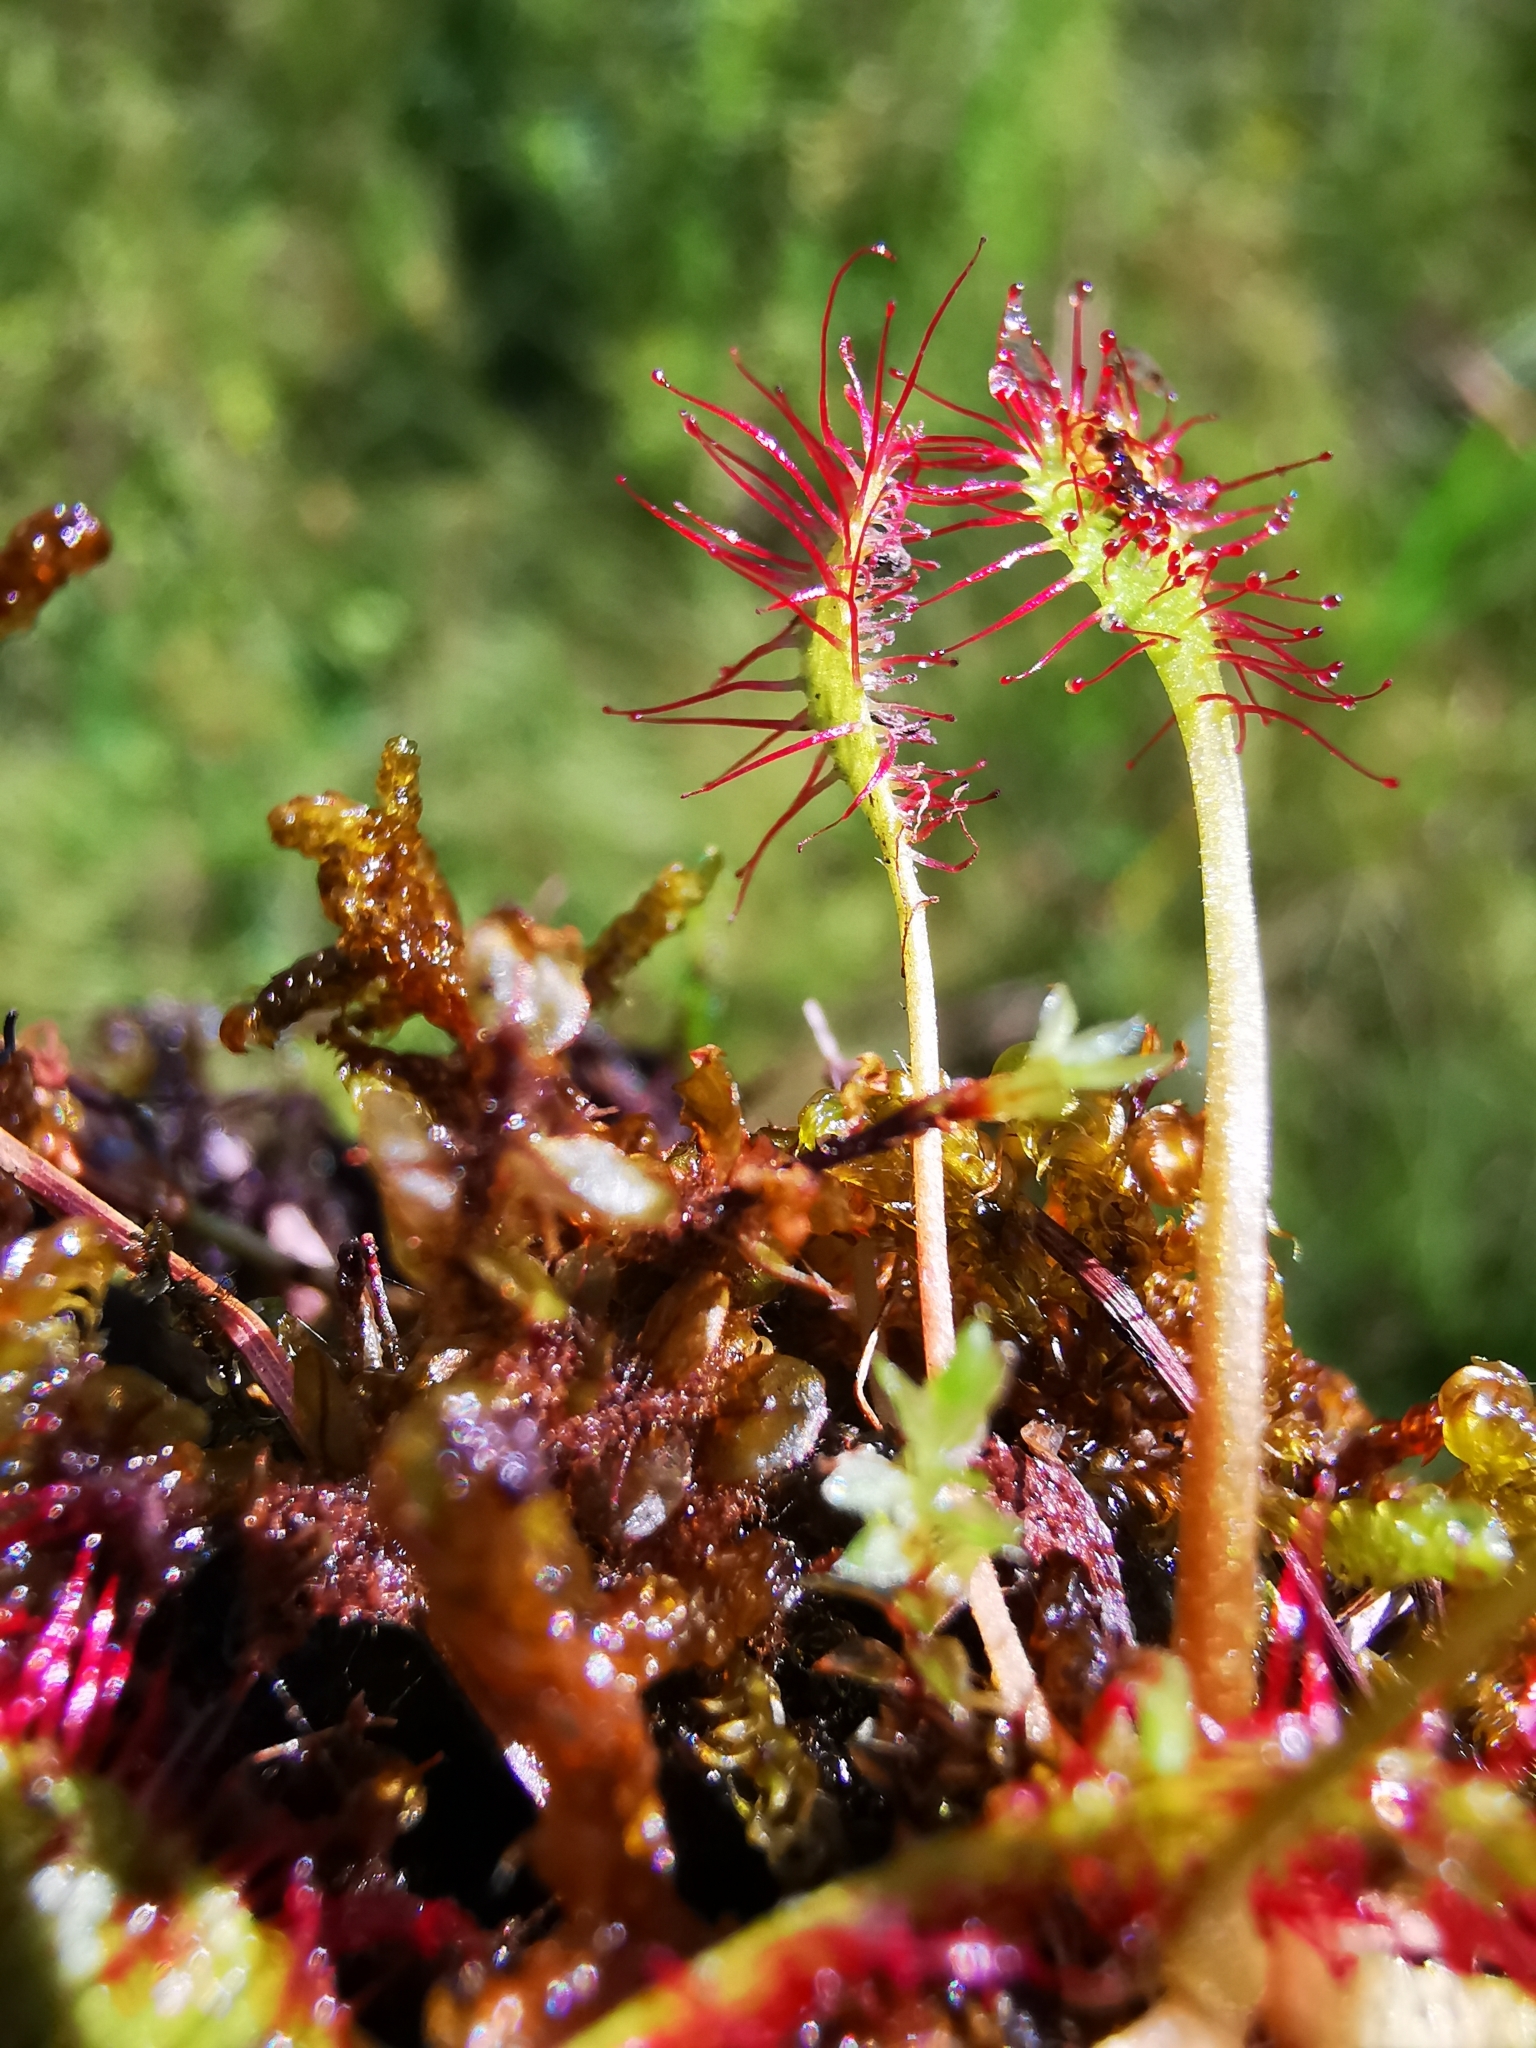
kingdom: Plantae
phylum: Tracheophyta
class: Magnoliopsida
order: Caryophyllales
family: Droseraceae
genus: Drosera
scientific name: Drosera intermedia
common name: Oblong-leaved sundew
